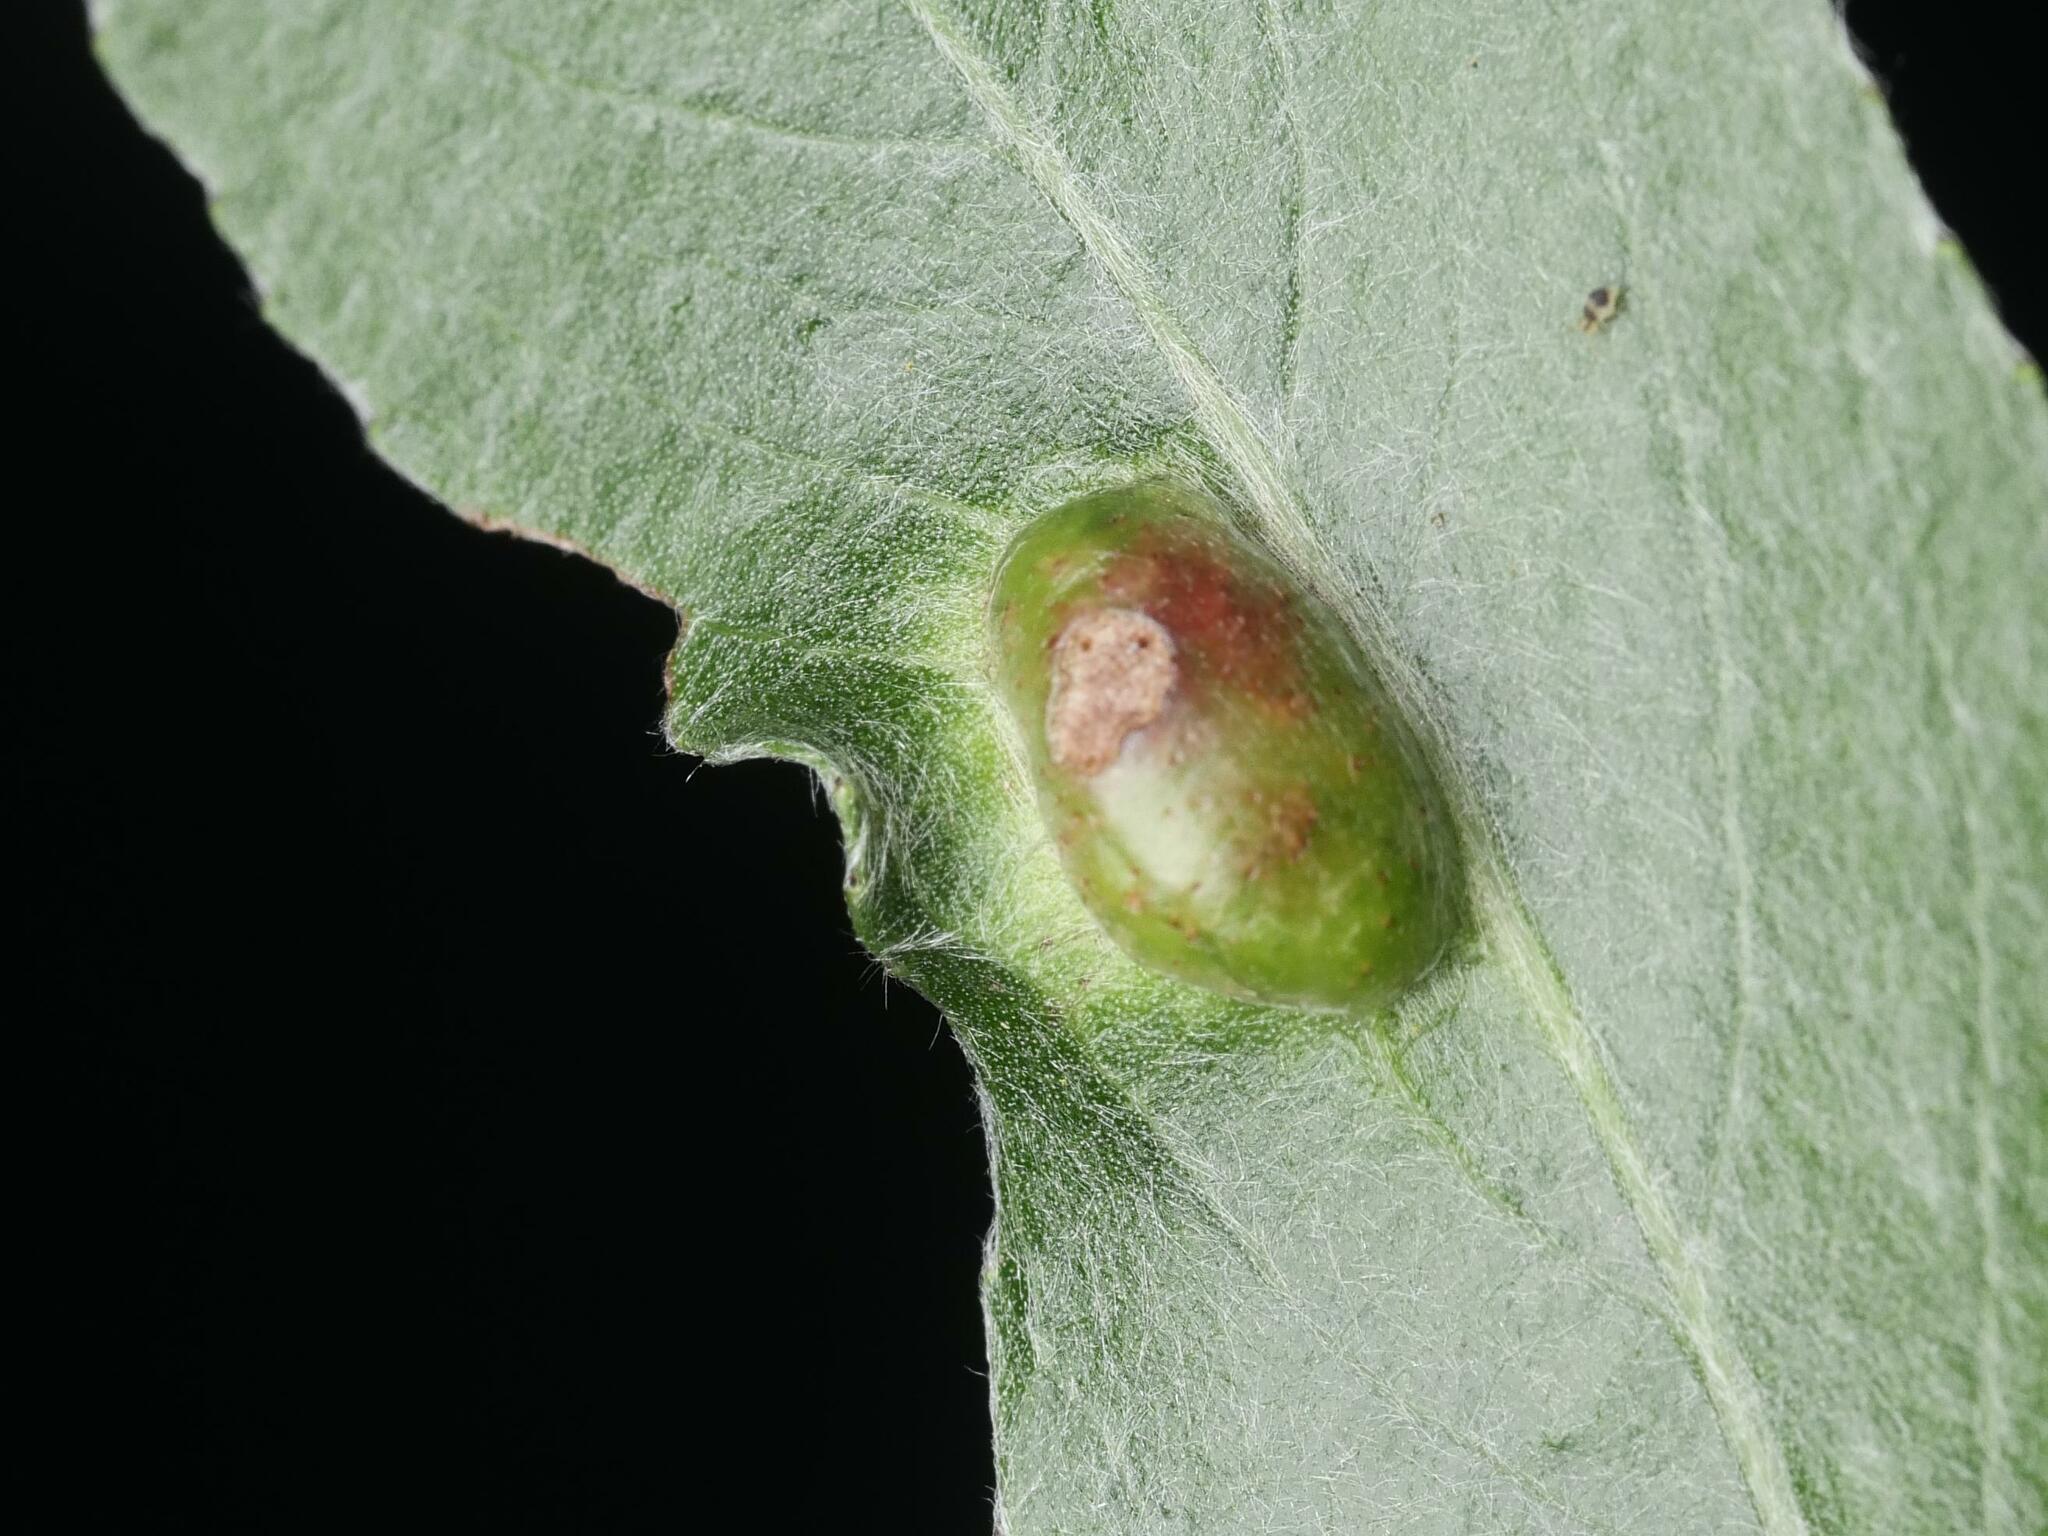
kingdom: Animalia
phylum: Arthropoda
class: Insecta
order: Hymenoptera
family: Tenthredinidae
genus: Pontania
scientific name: Pontania proxima
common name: Common sawfly
